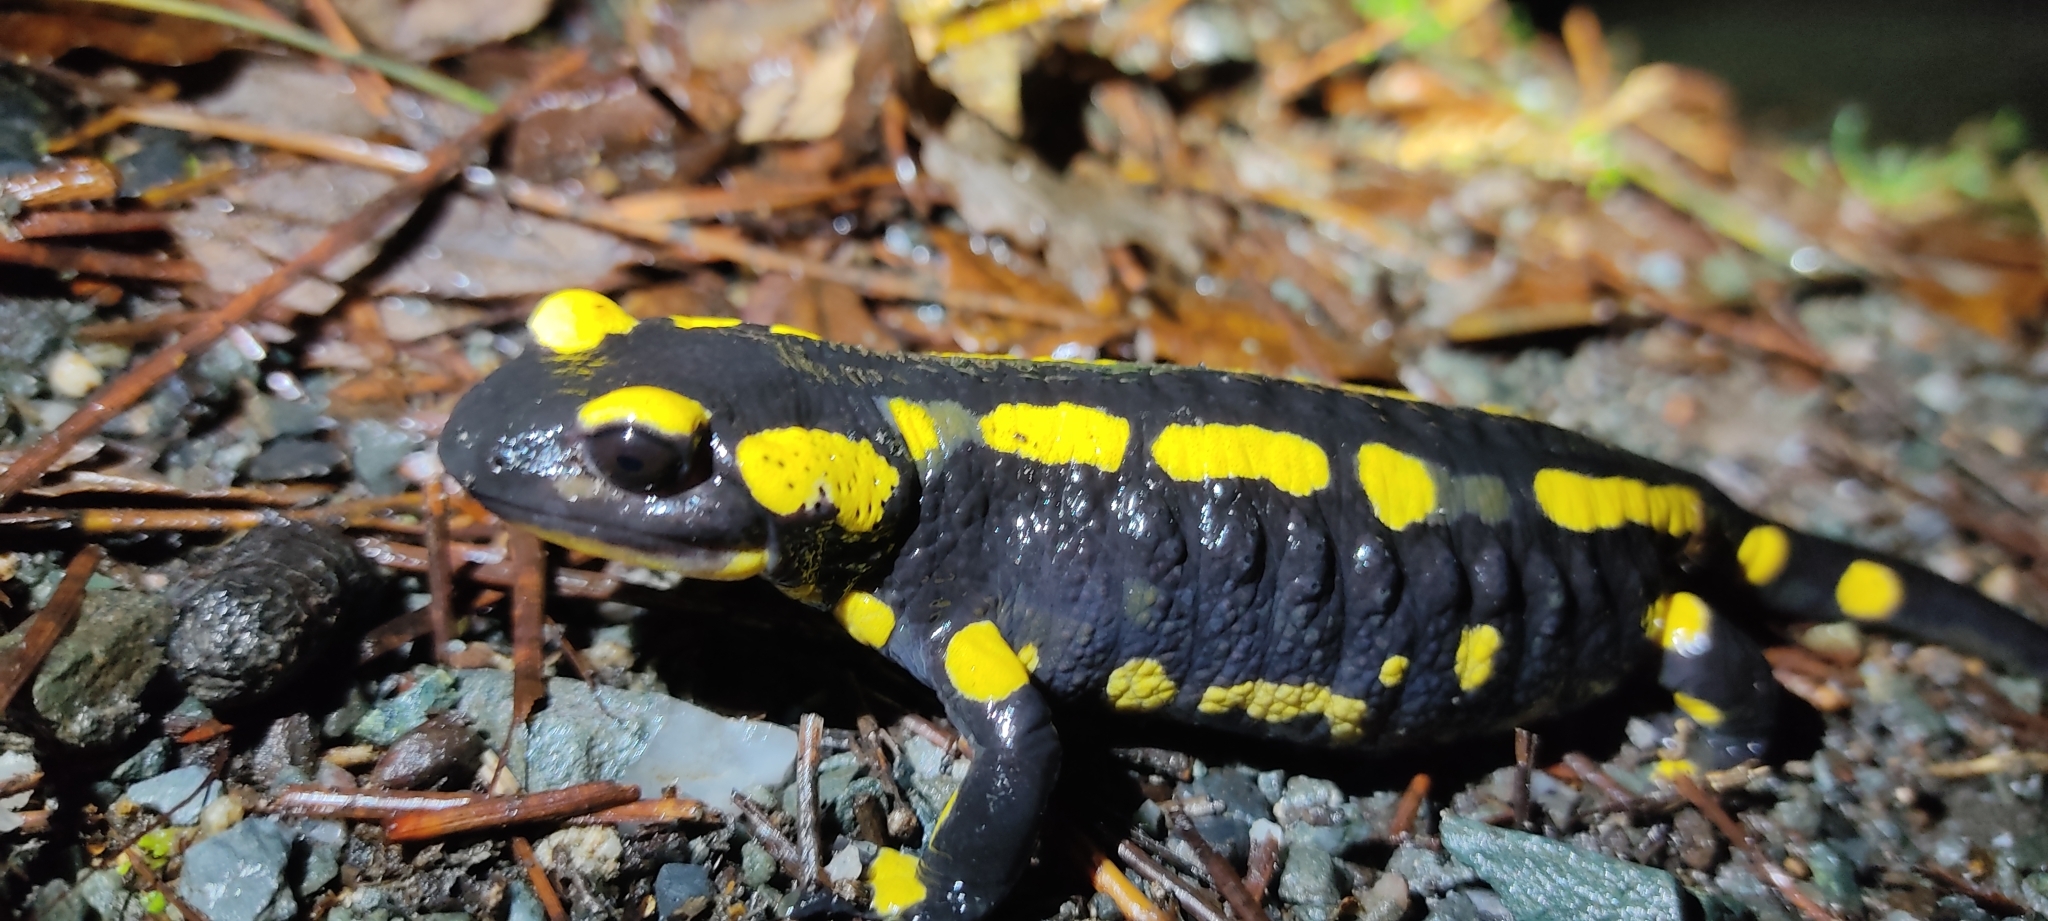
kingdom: Animalia
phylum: Chordata
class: Amphibia
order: Caudata
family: Salamandridae
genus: Salamandra
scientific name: Salamandra salamandra
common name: Fire salamander
